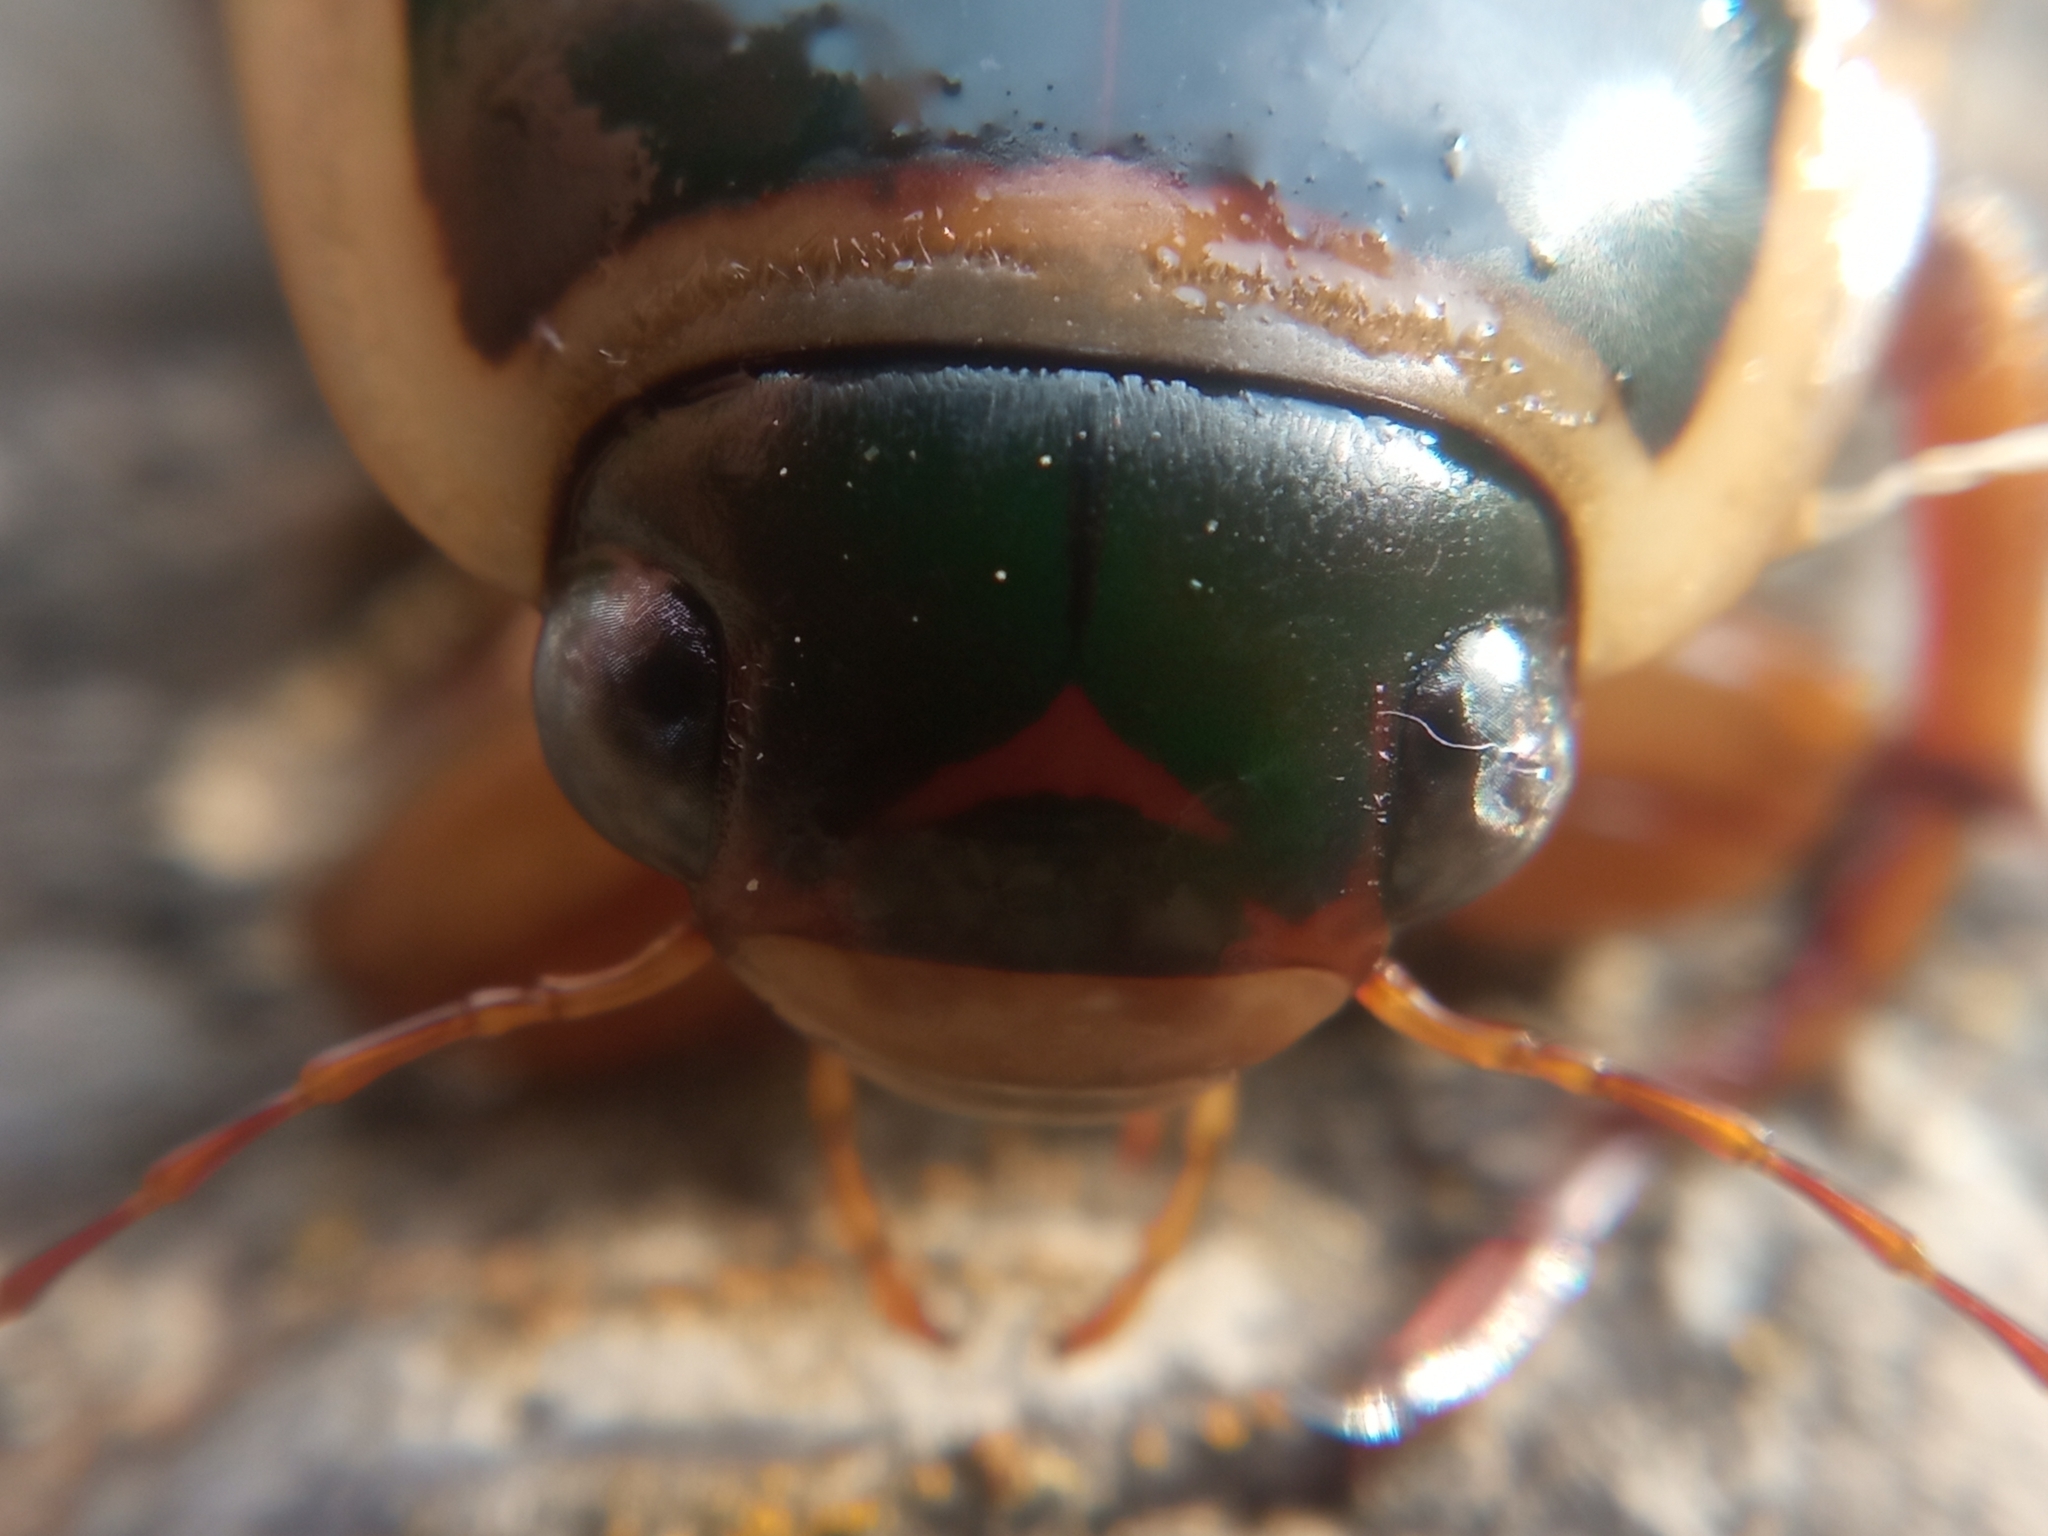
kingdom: Animalia
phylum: Arthropoda
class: Insecta
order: Coleoptera
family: Dytiscidae
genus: Dytiscus
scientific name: Dytiscus marginalis
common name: Great water beetle
